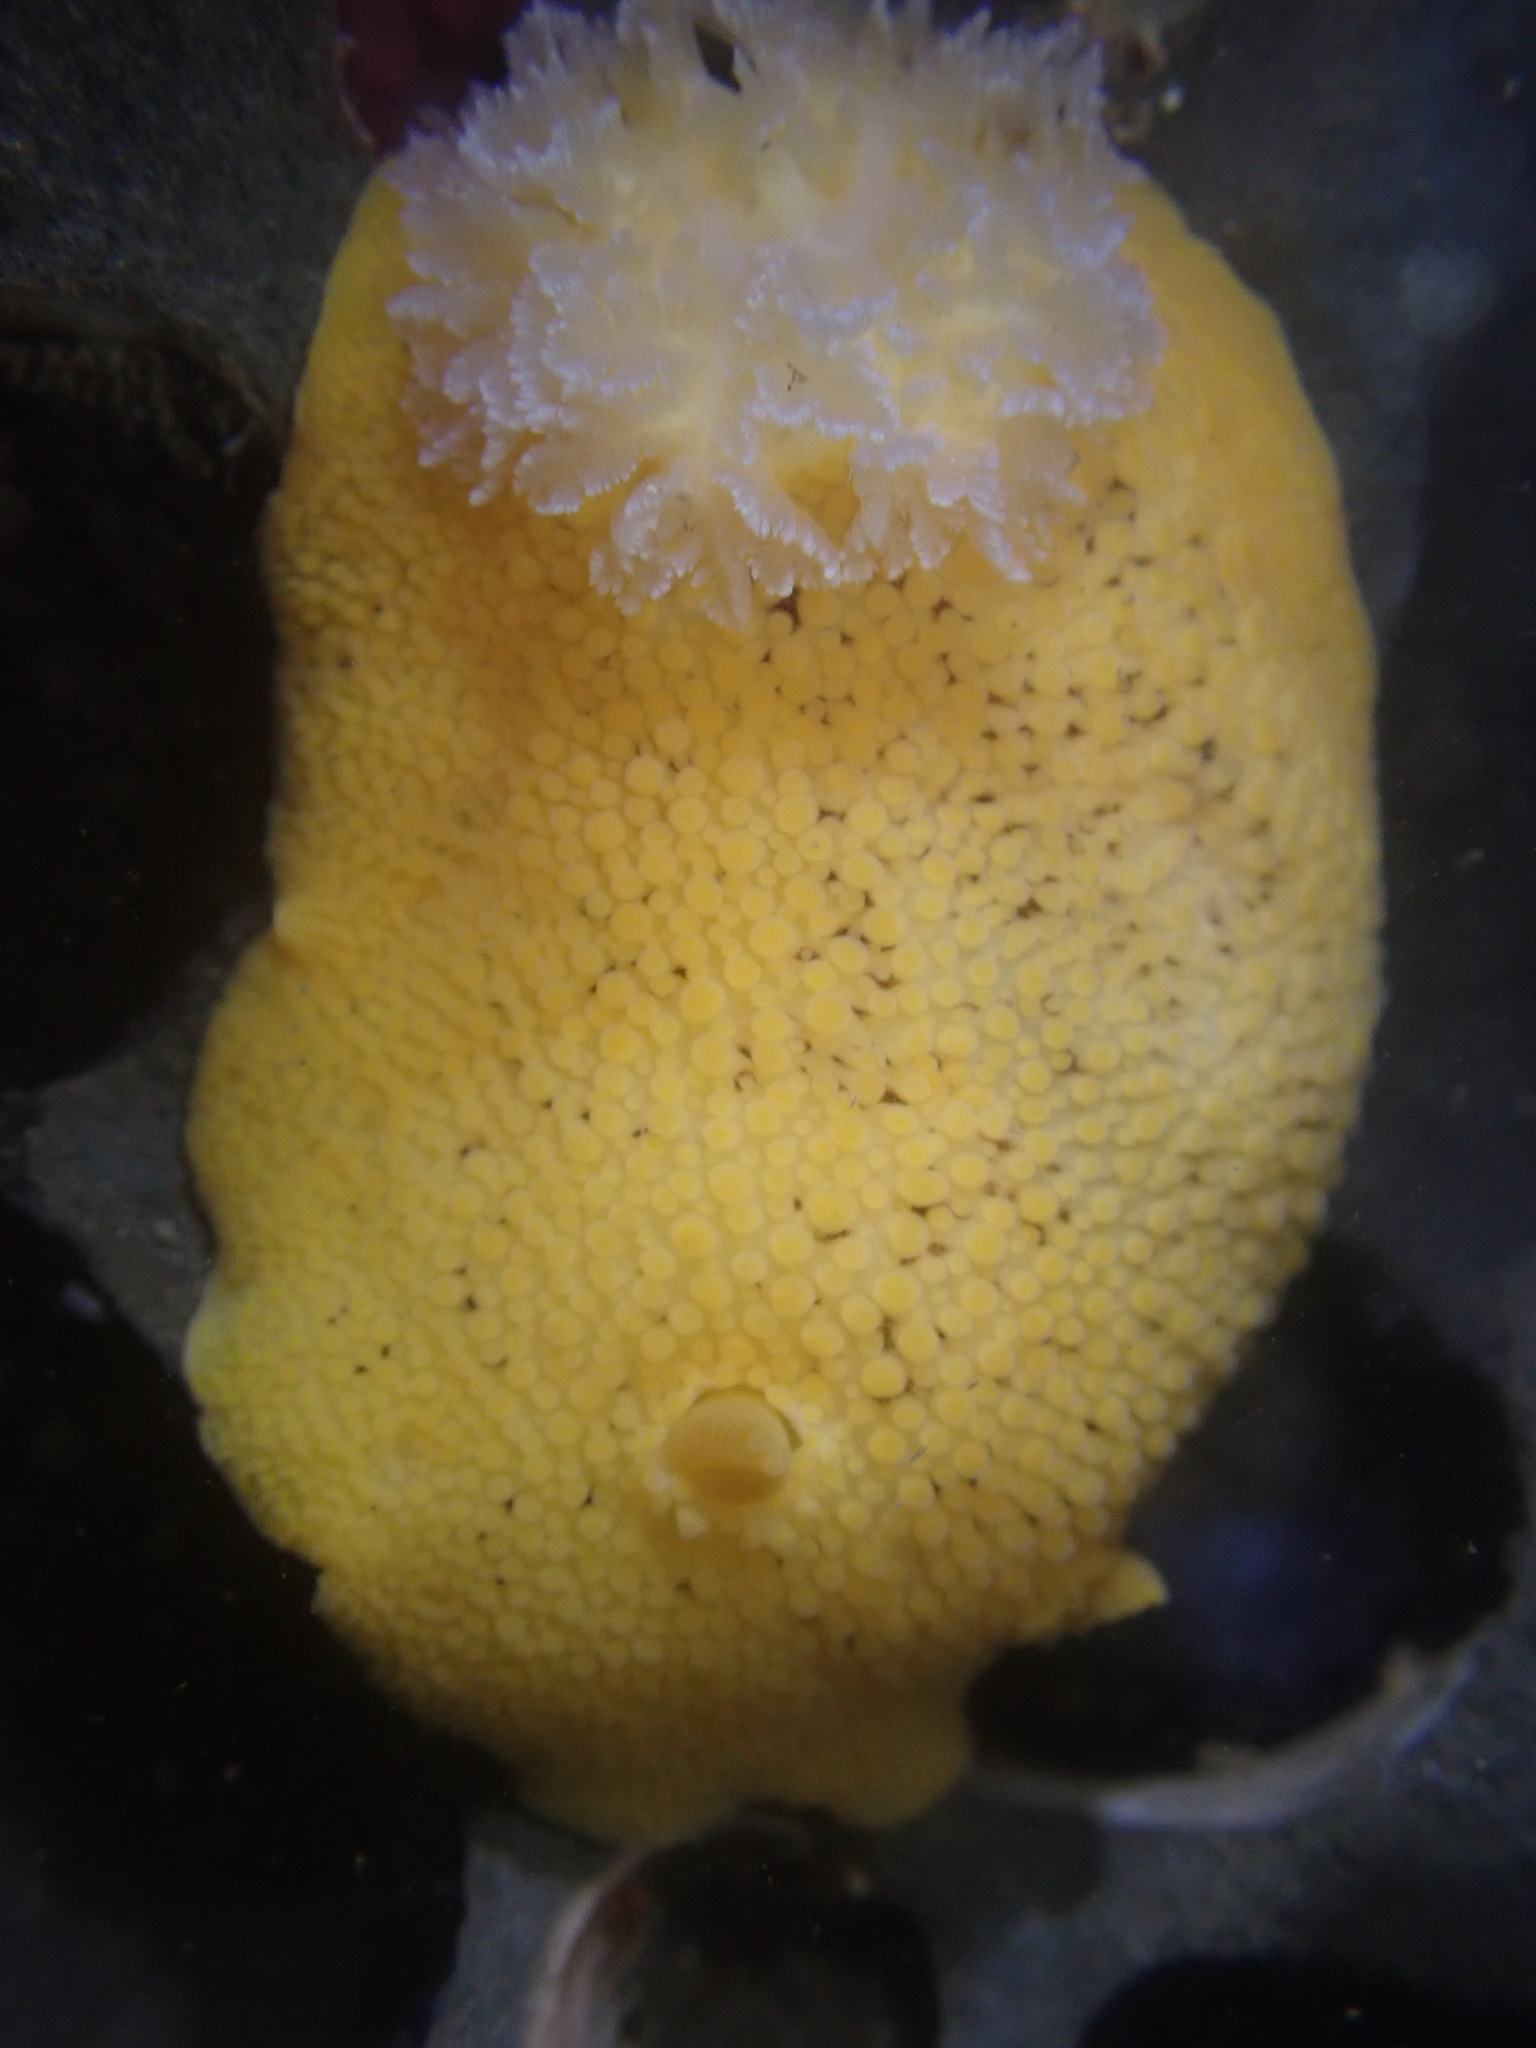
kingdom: Animalia
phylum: Mollusca
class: Gastropoda
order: Nudibranchia
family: Discodorididae
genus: Peltodoris
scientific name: Peltodoris nobilis
